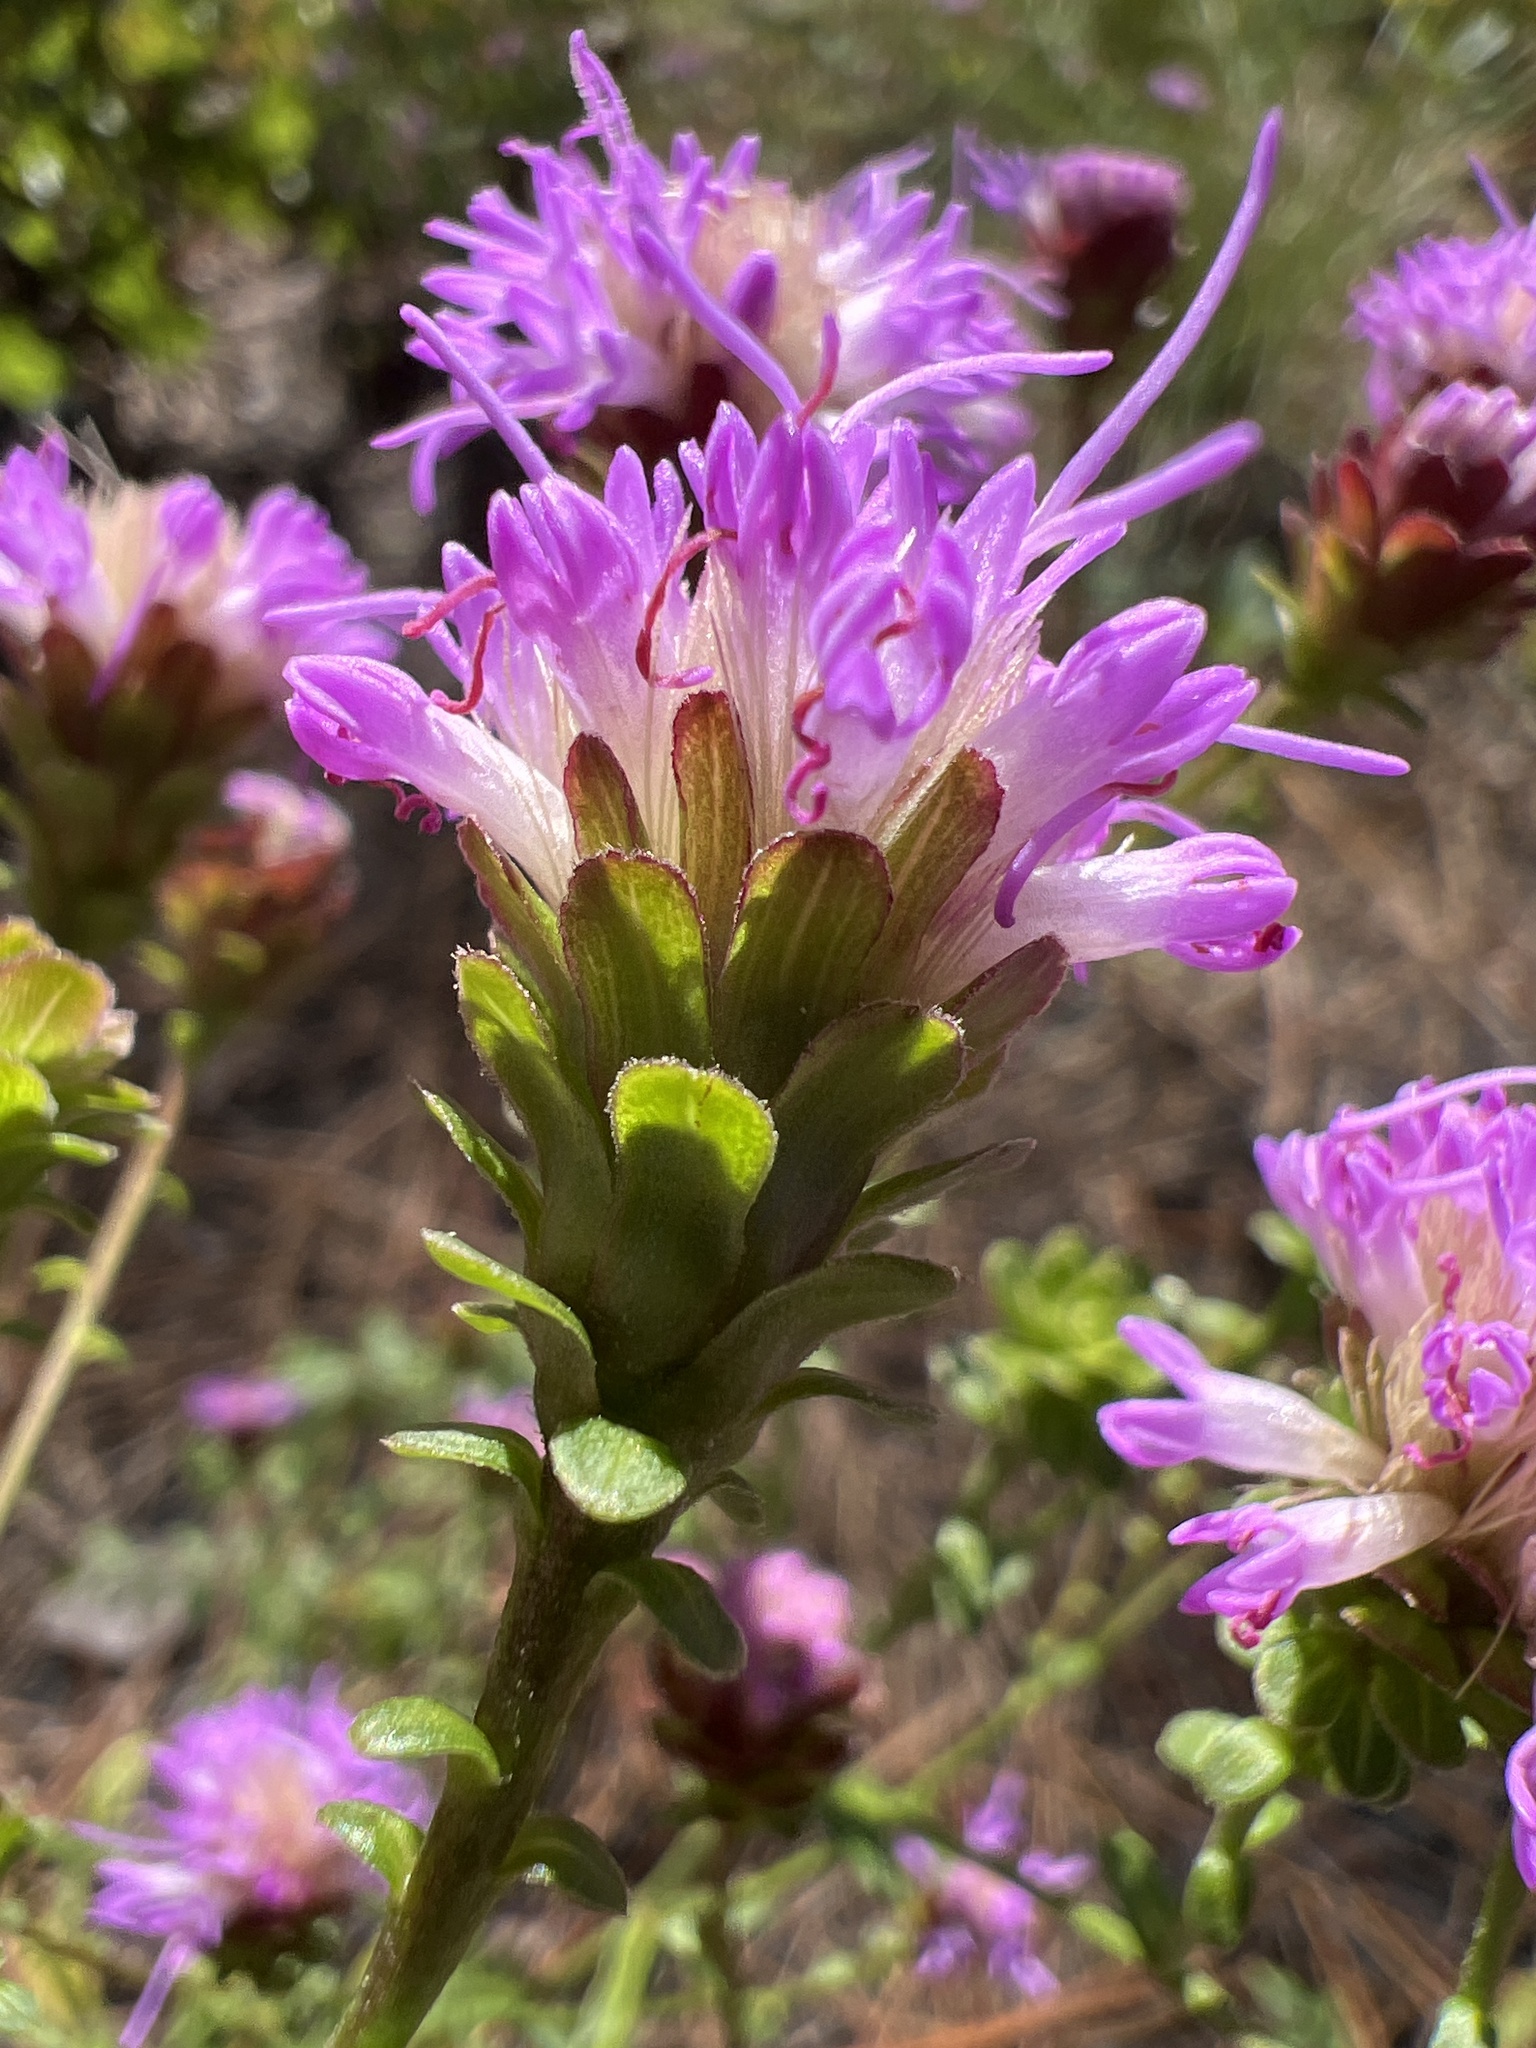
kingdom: Plantae
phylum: Tracheophyta
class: Magnoliopsida
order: Asterales
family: Asteraceae
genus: Carphephorus
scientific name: Carphephorus bellidifolius
